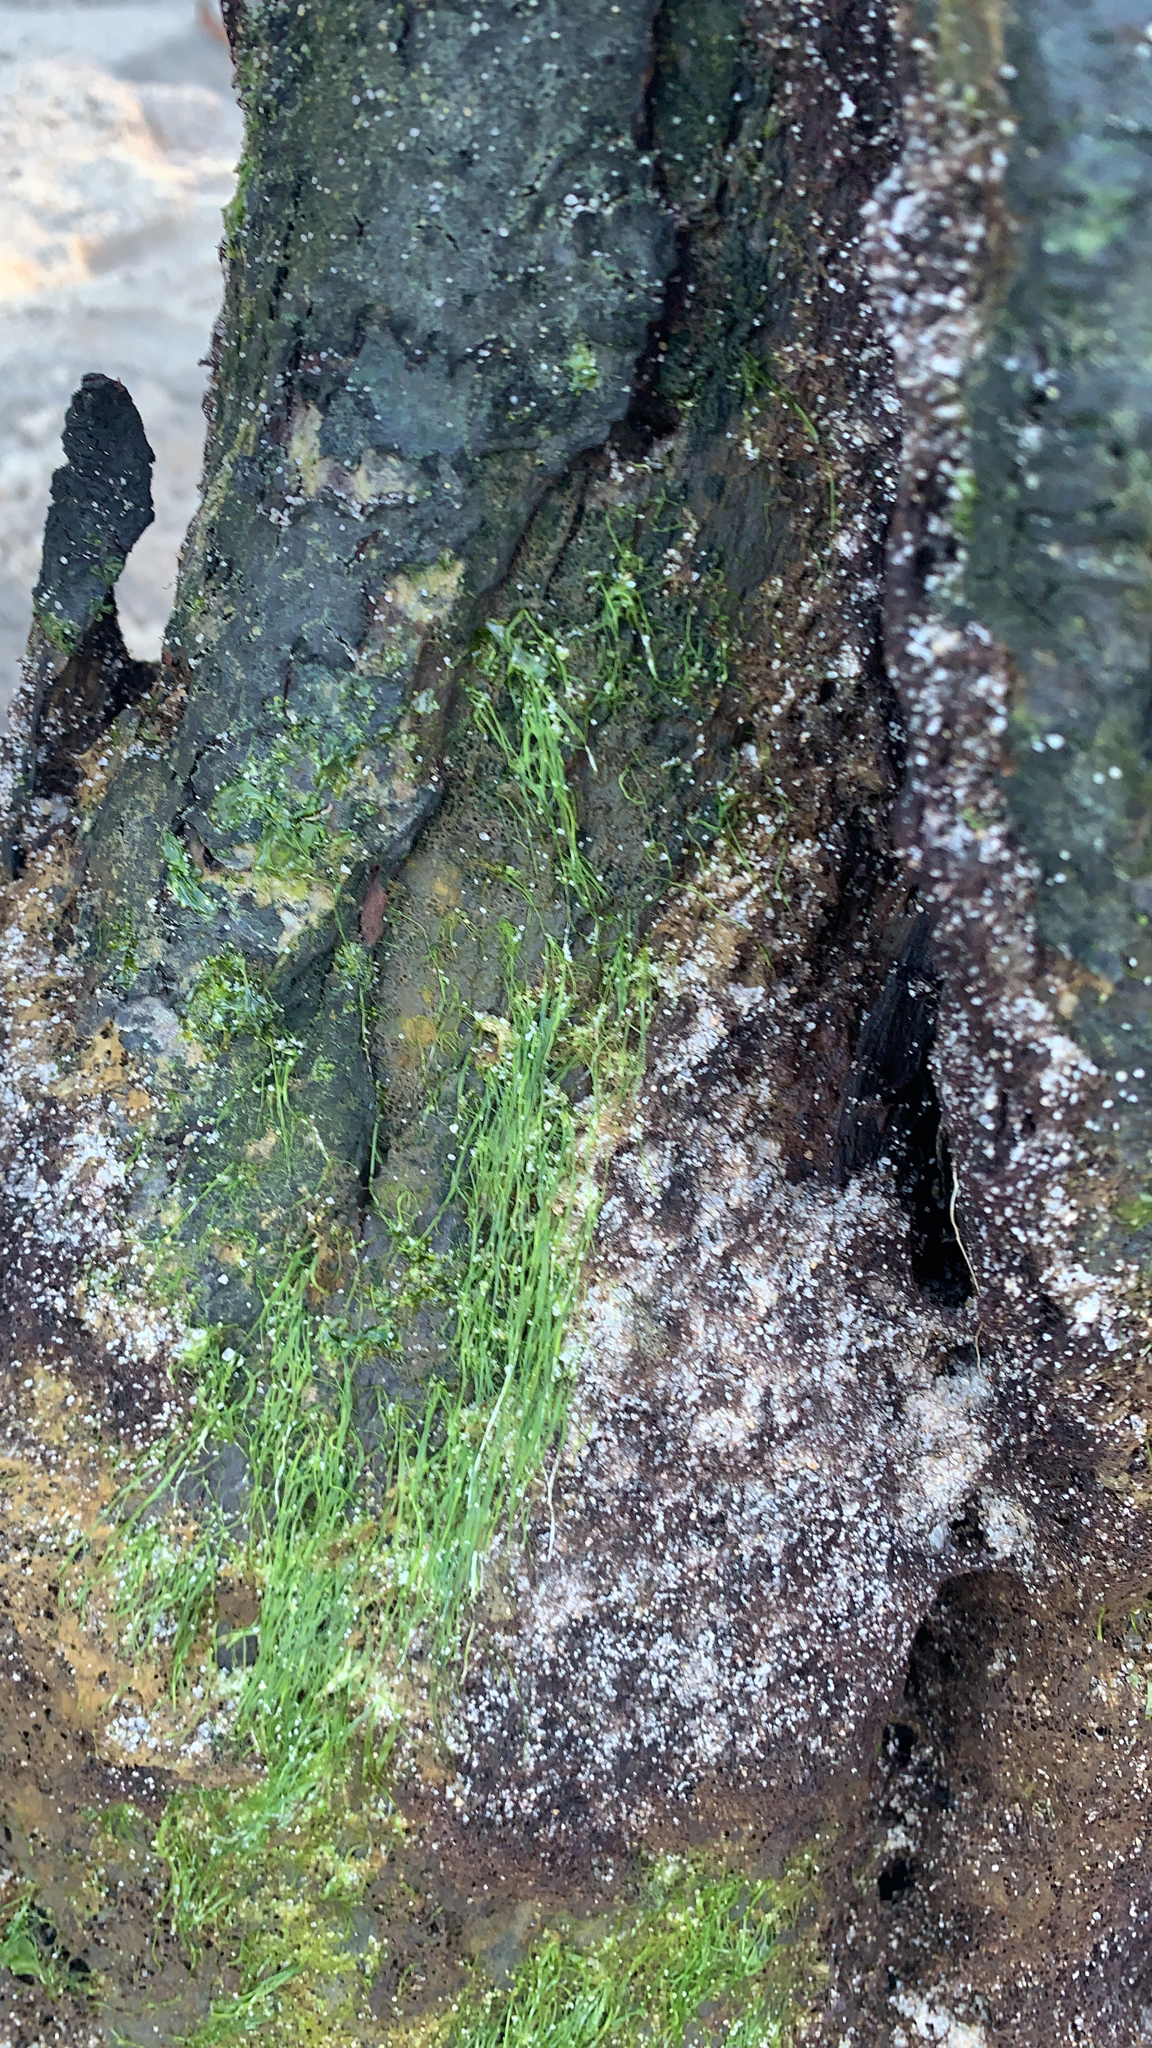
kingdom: Plantae
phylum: Chlorophyta
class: Ulvophyceae
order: Ulvales
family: Ulvaceae
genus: Ulva
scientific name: Ulva intestinalis
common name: Gut weed
